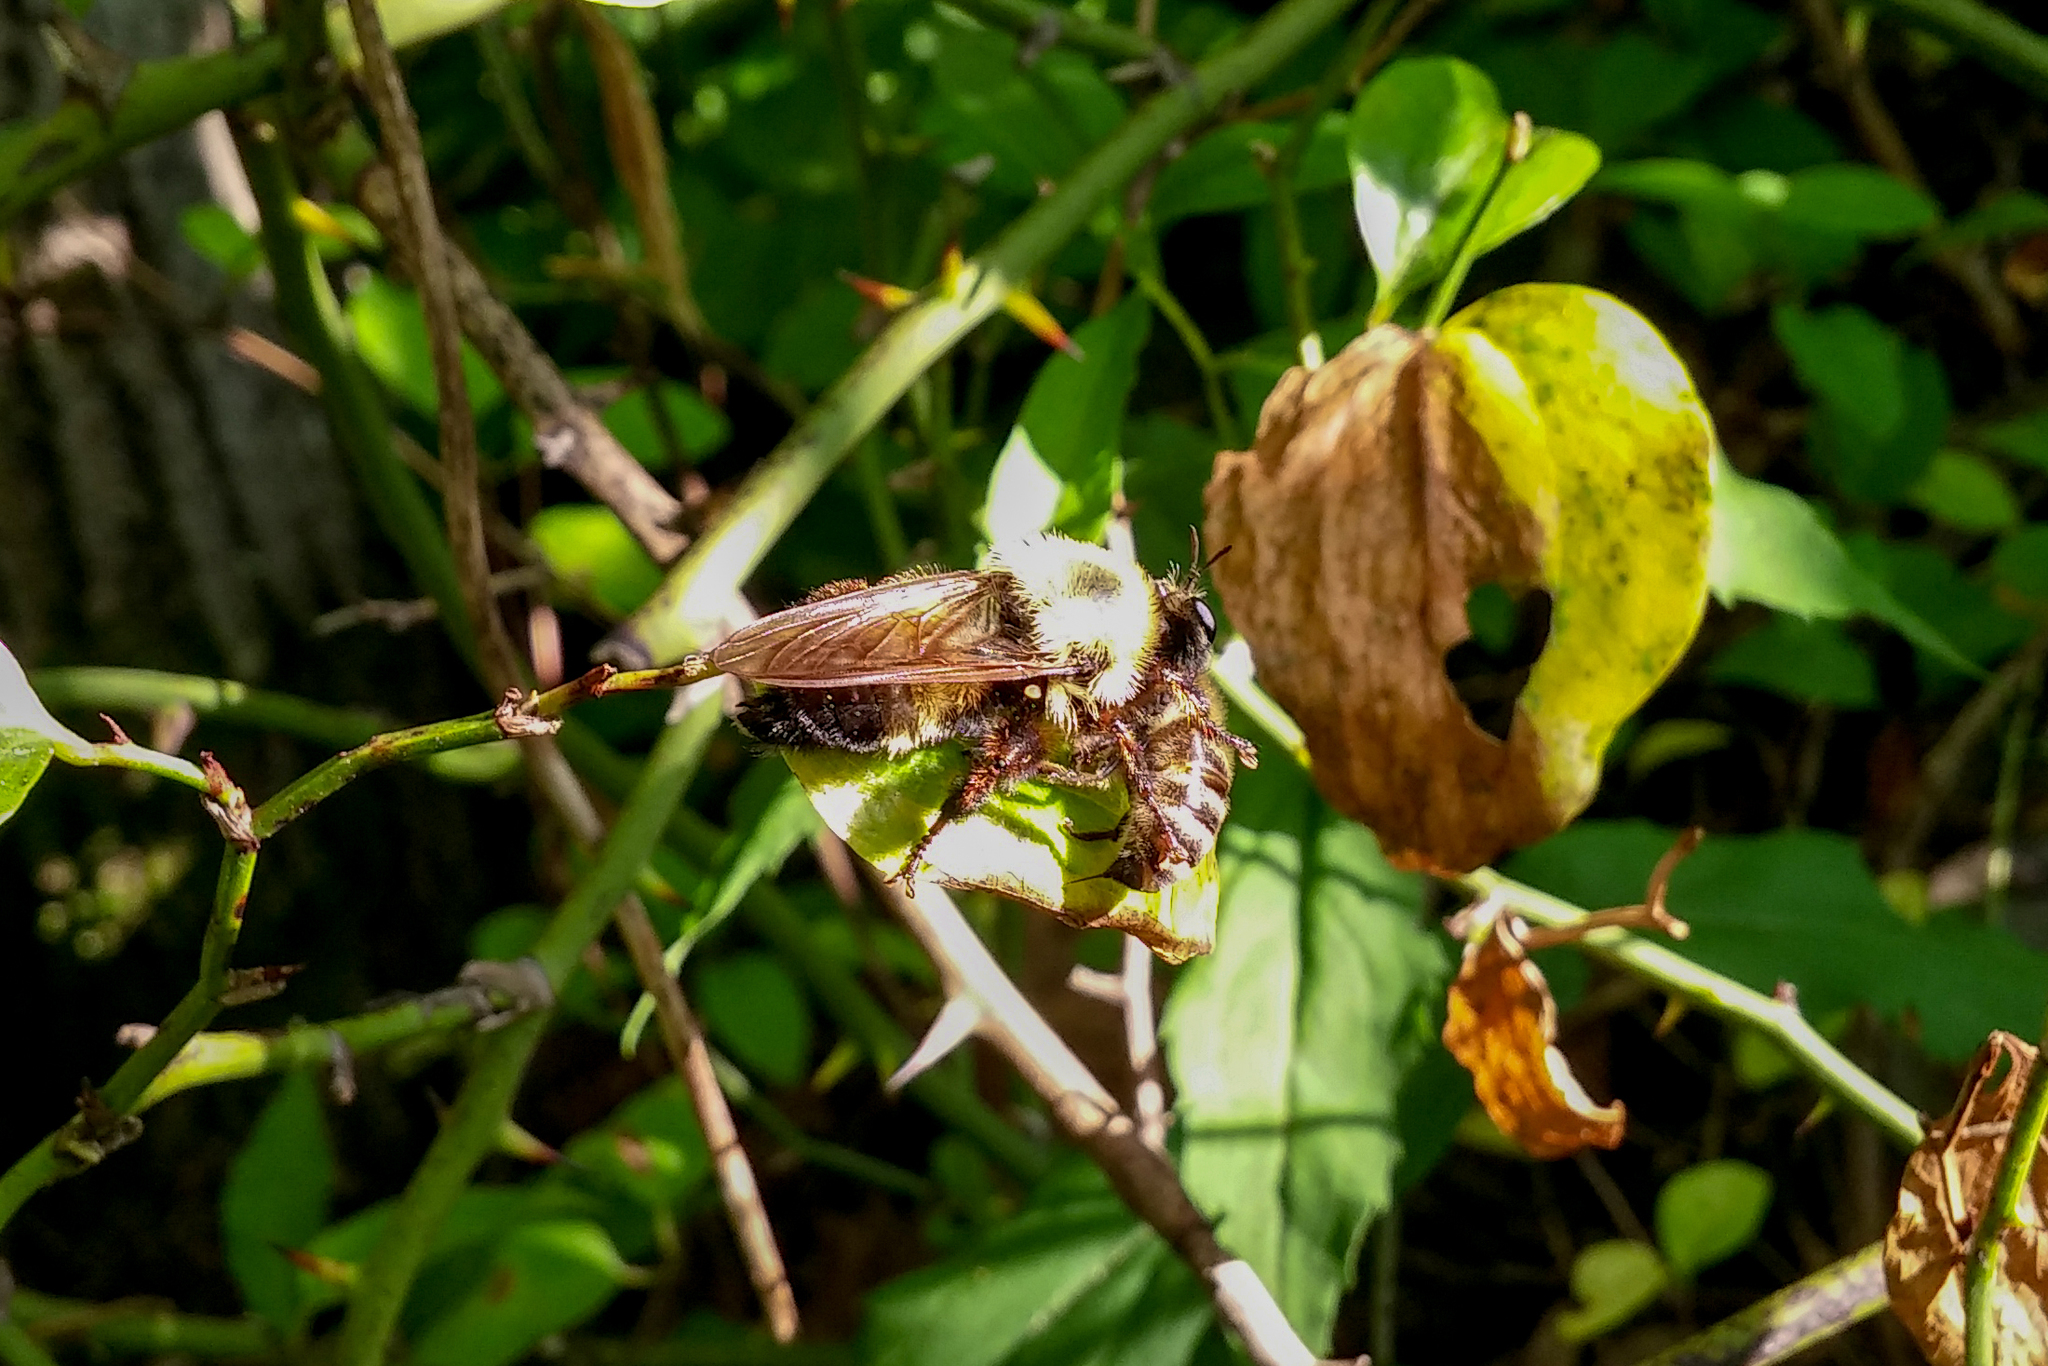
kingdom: Animalia
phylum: Arthropoda
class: Insecta
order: Diptera
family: Asilidae
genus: Laphria
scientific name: Laphria thoracica
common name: Bumble bee mimic robber fly
